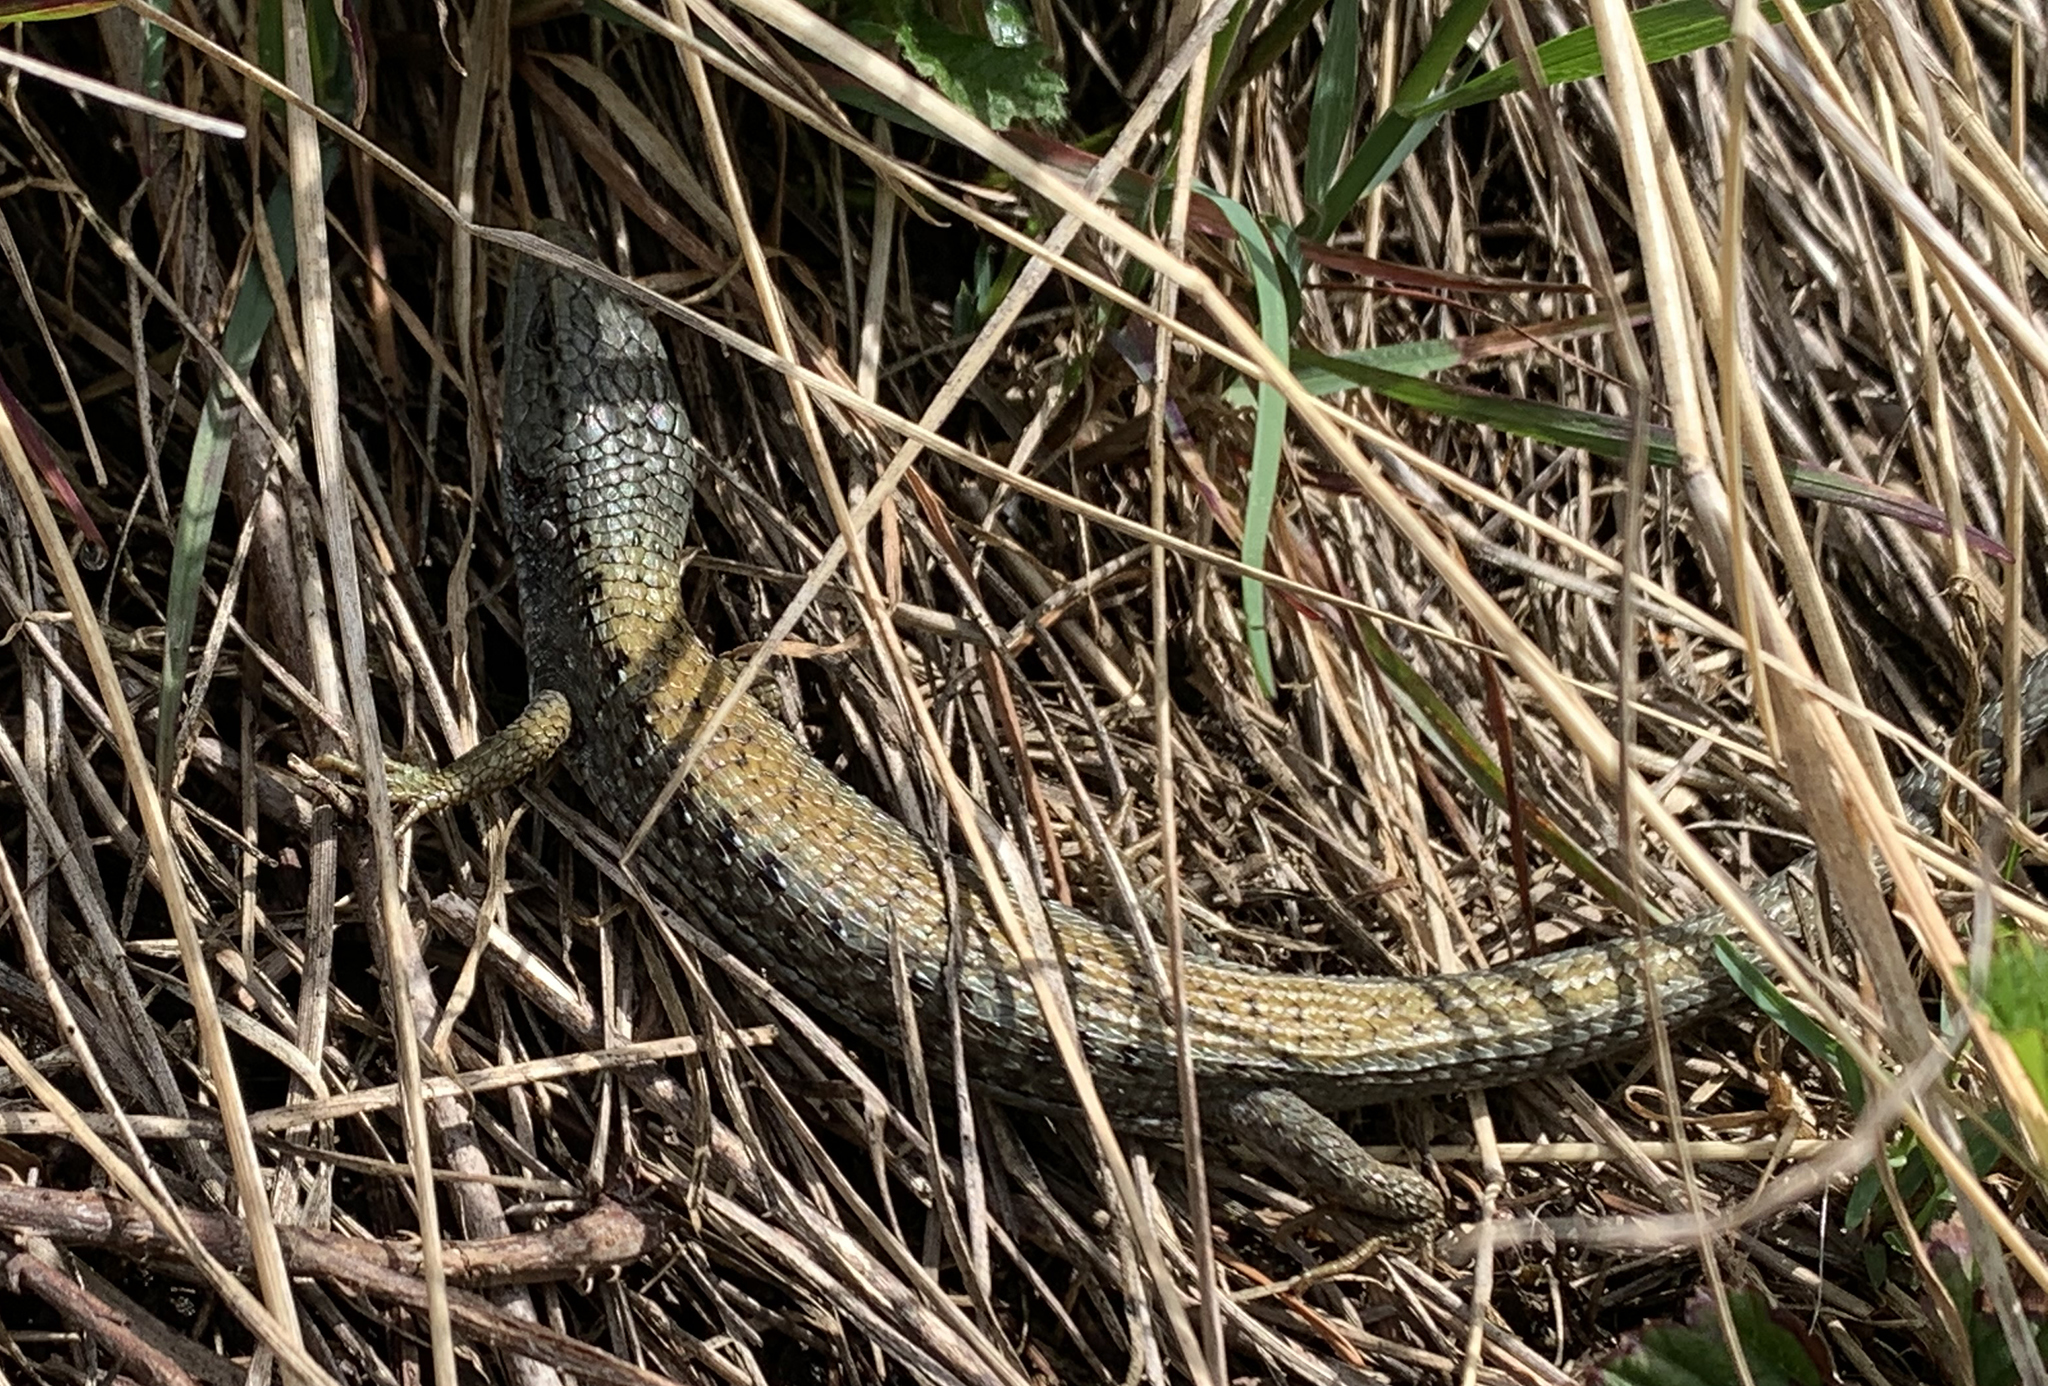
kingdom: Animalia
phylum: Chordata
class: Squamata
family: Anguidae
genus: Elgaria
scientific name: Elgaria coerulea
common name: Northern alligator lizard
